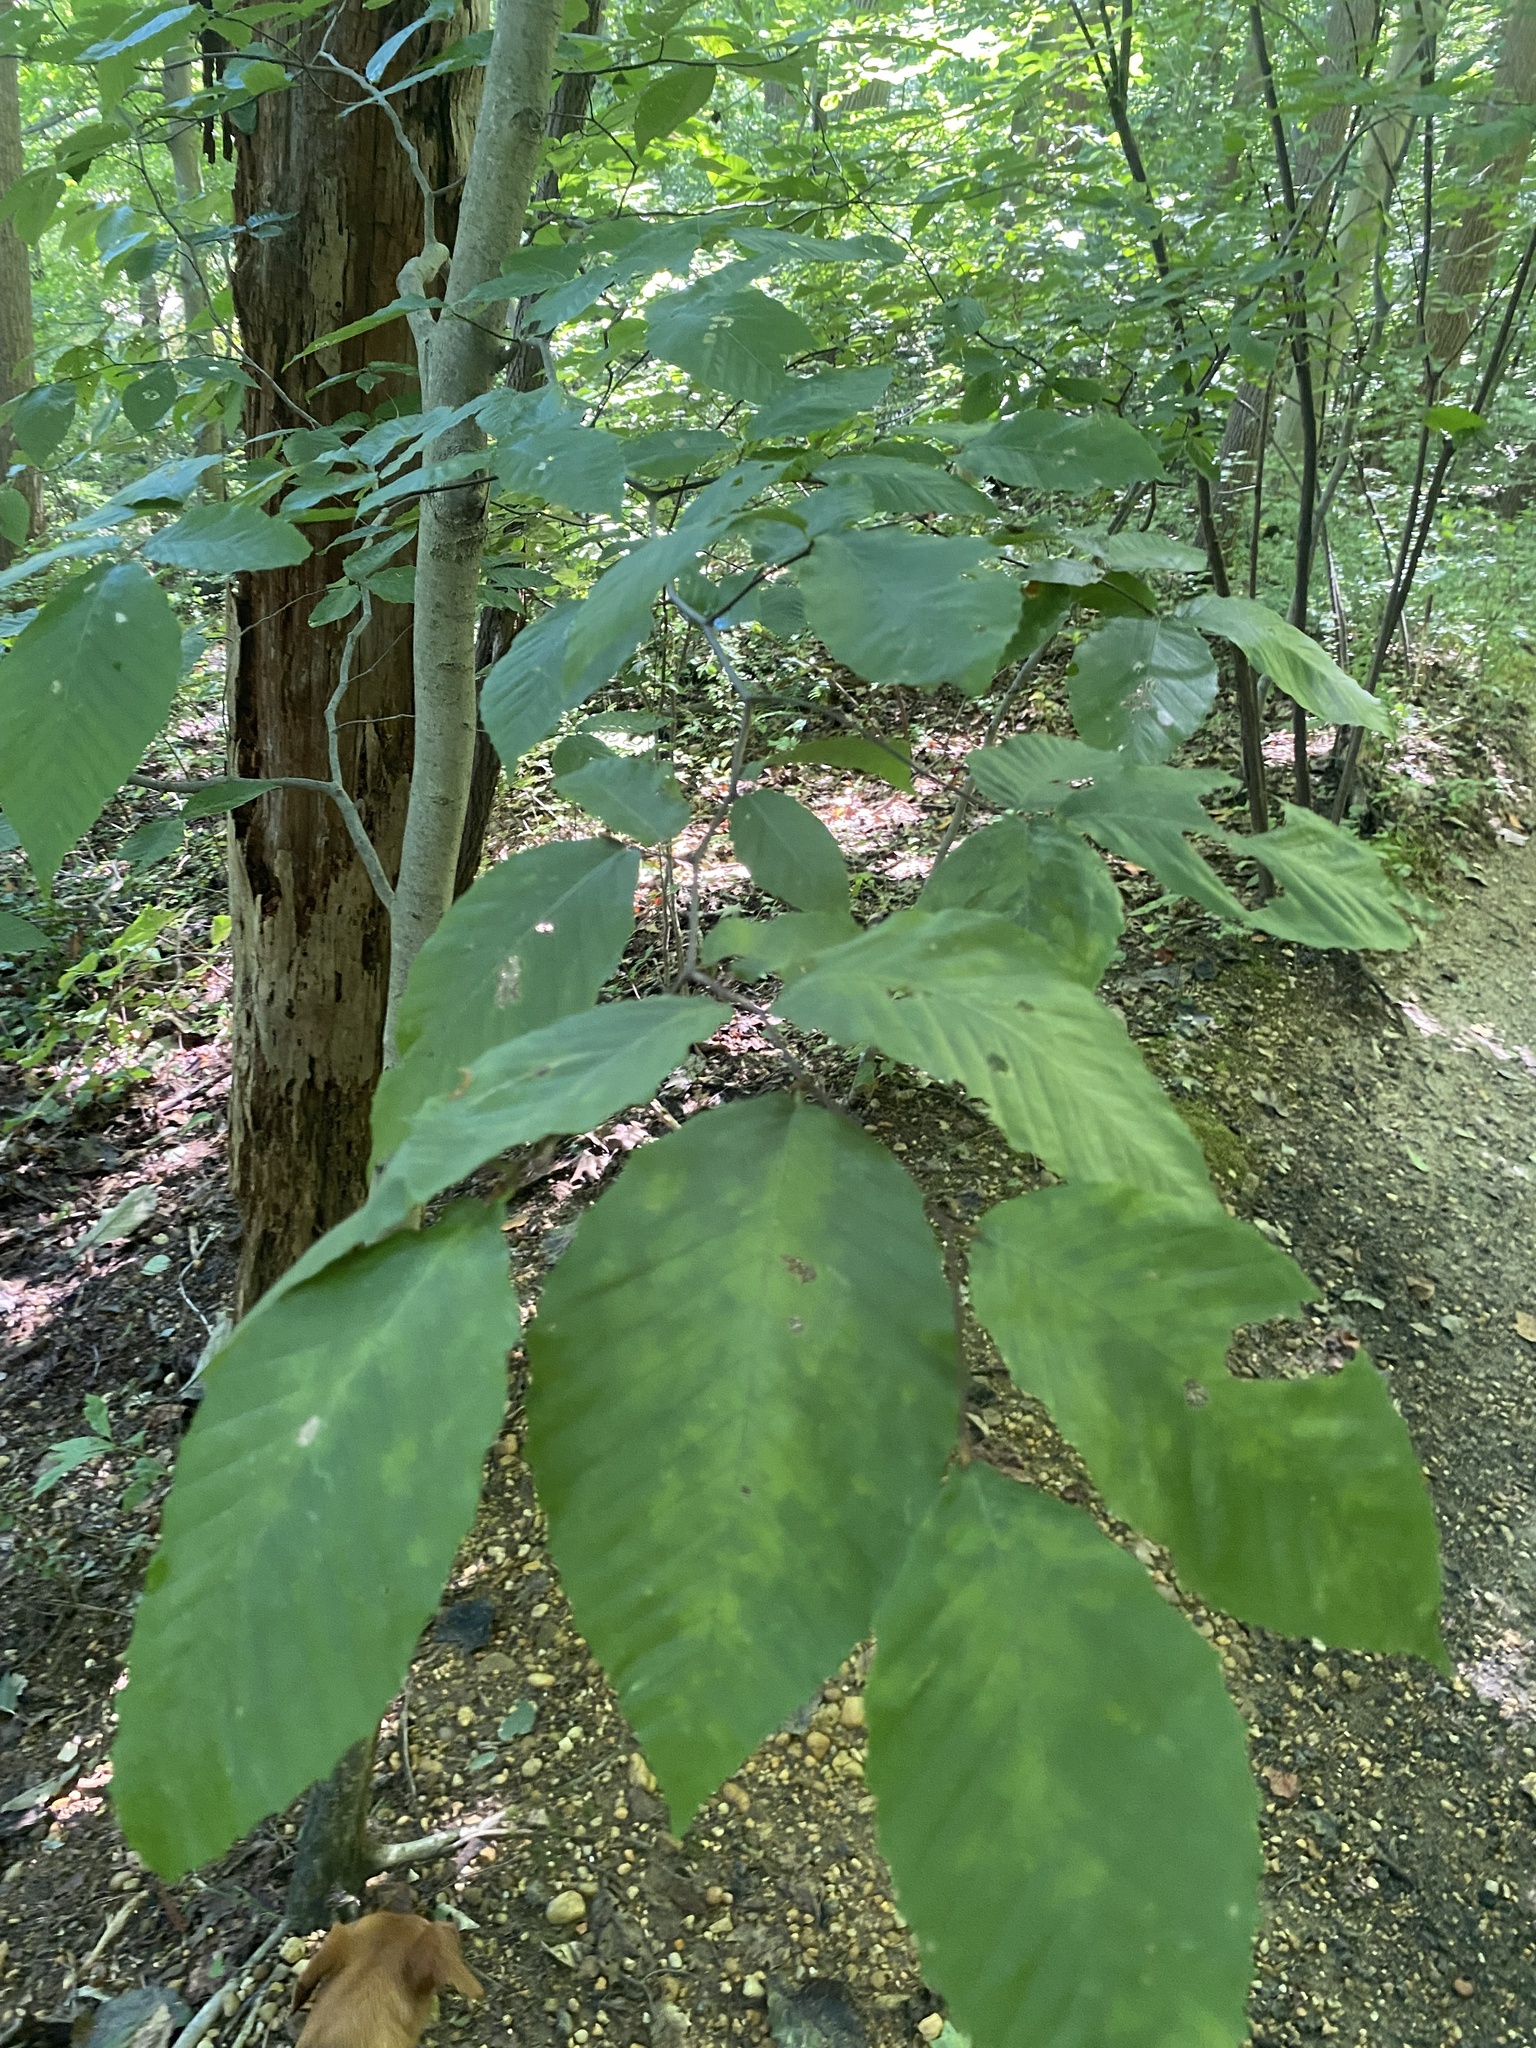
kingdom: Plantae
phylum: Tracheophyta
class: Magnoliopsida
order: Fagales
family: Fagaceae
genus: Fagus
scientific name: Fagus grandifolia
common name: American beech
